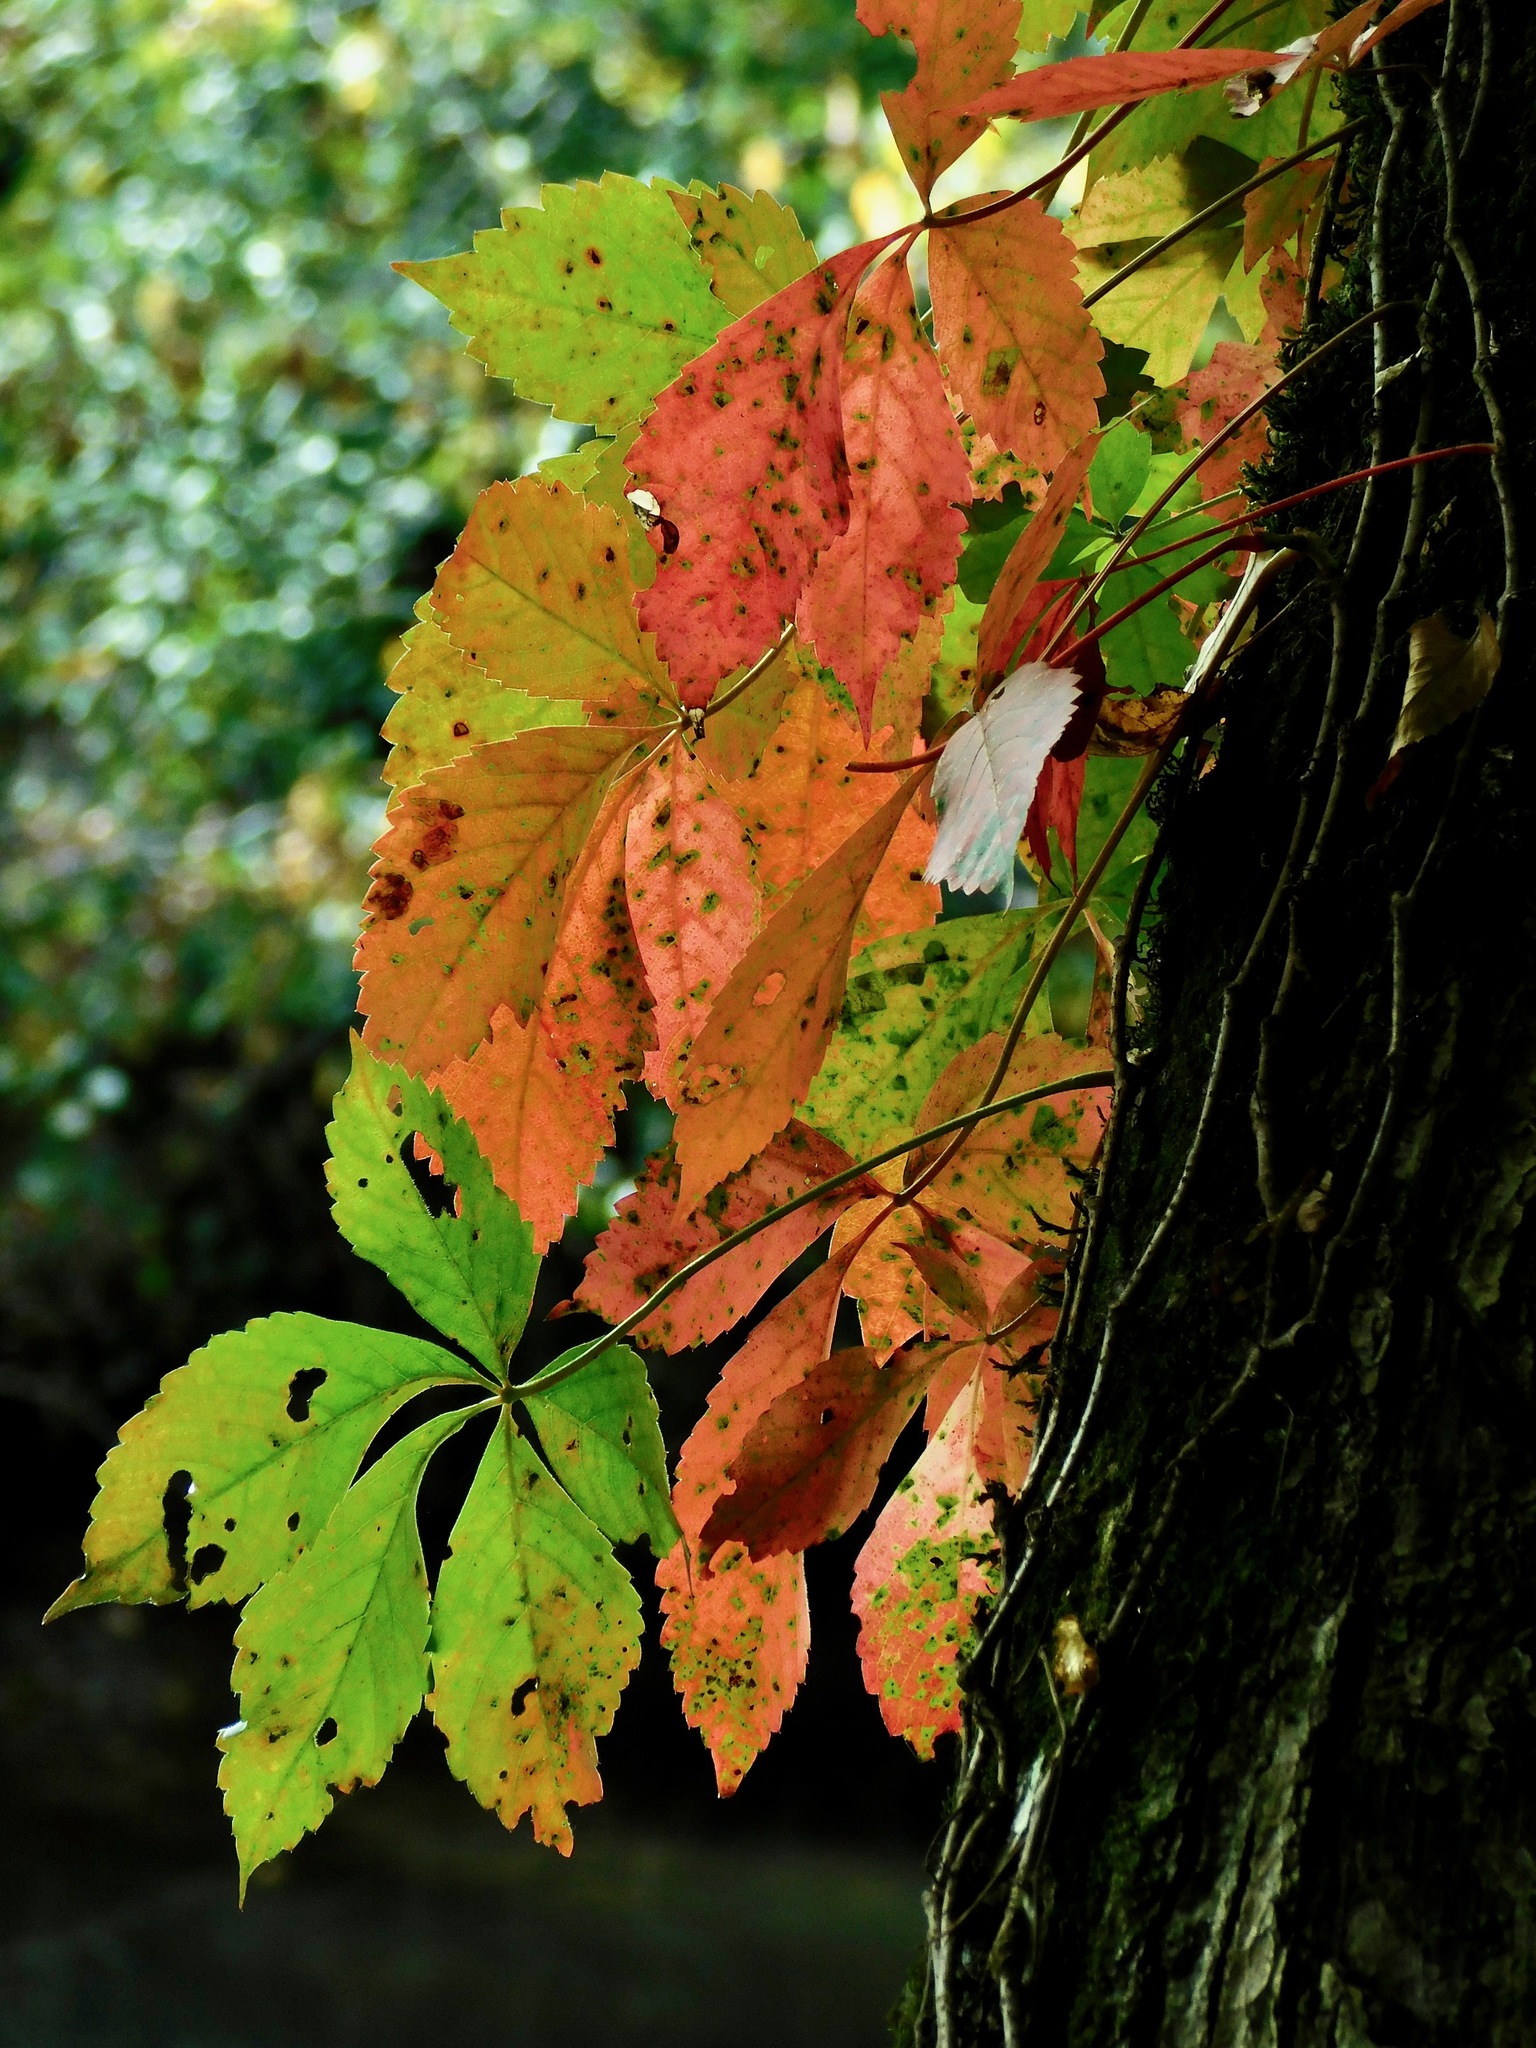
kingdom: Plantae
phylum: Tracheophyta
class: Magnoliopsida
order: Vitales
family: Vitaceae
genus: Parthenocissus
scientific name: Parthenocissus quinquefolia
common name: Virginia-creeper
